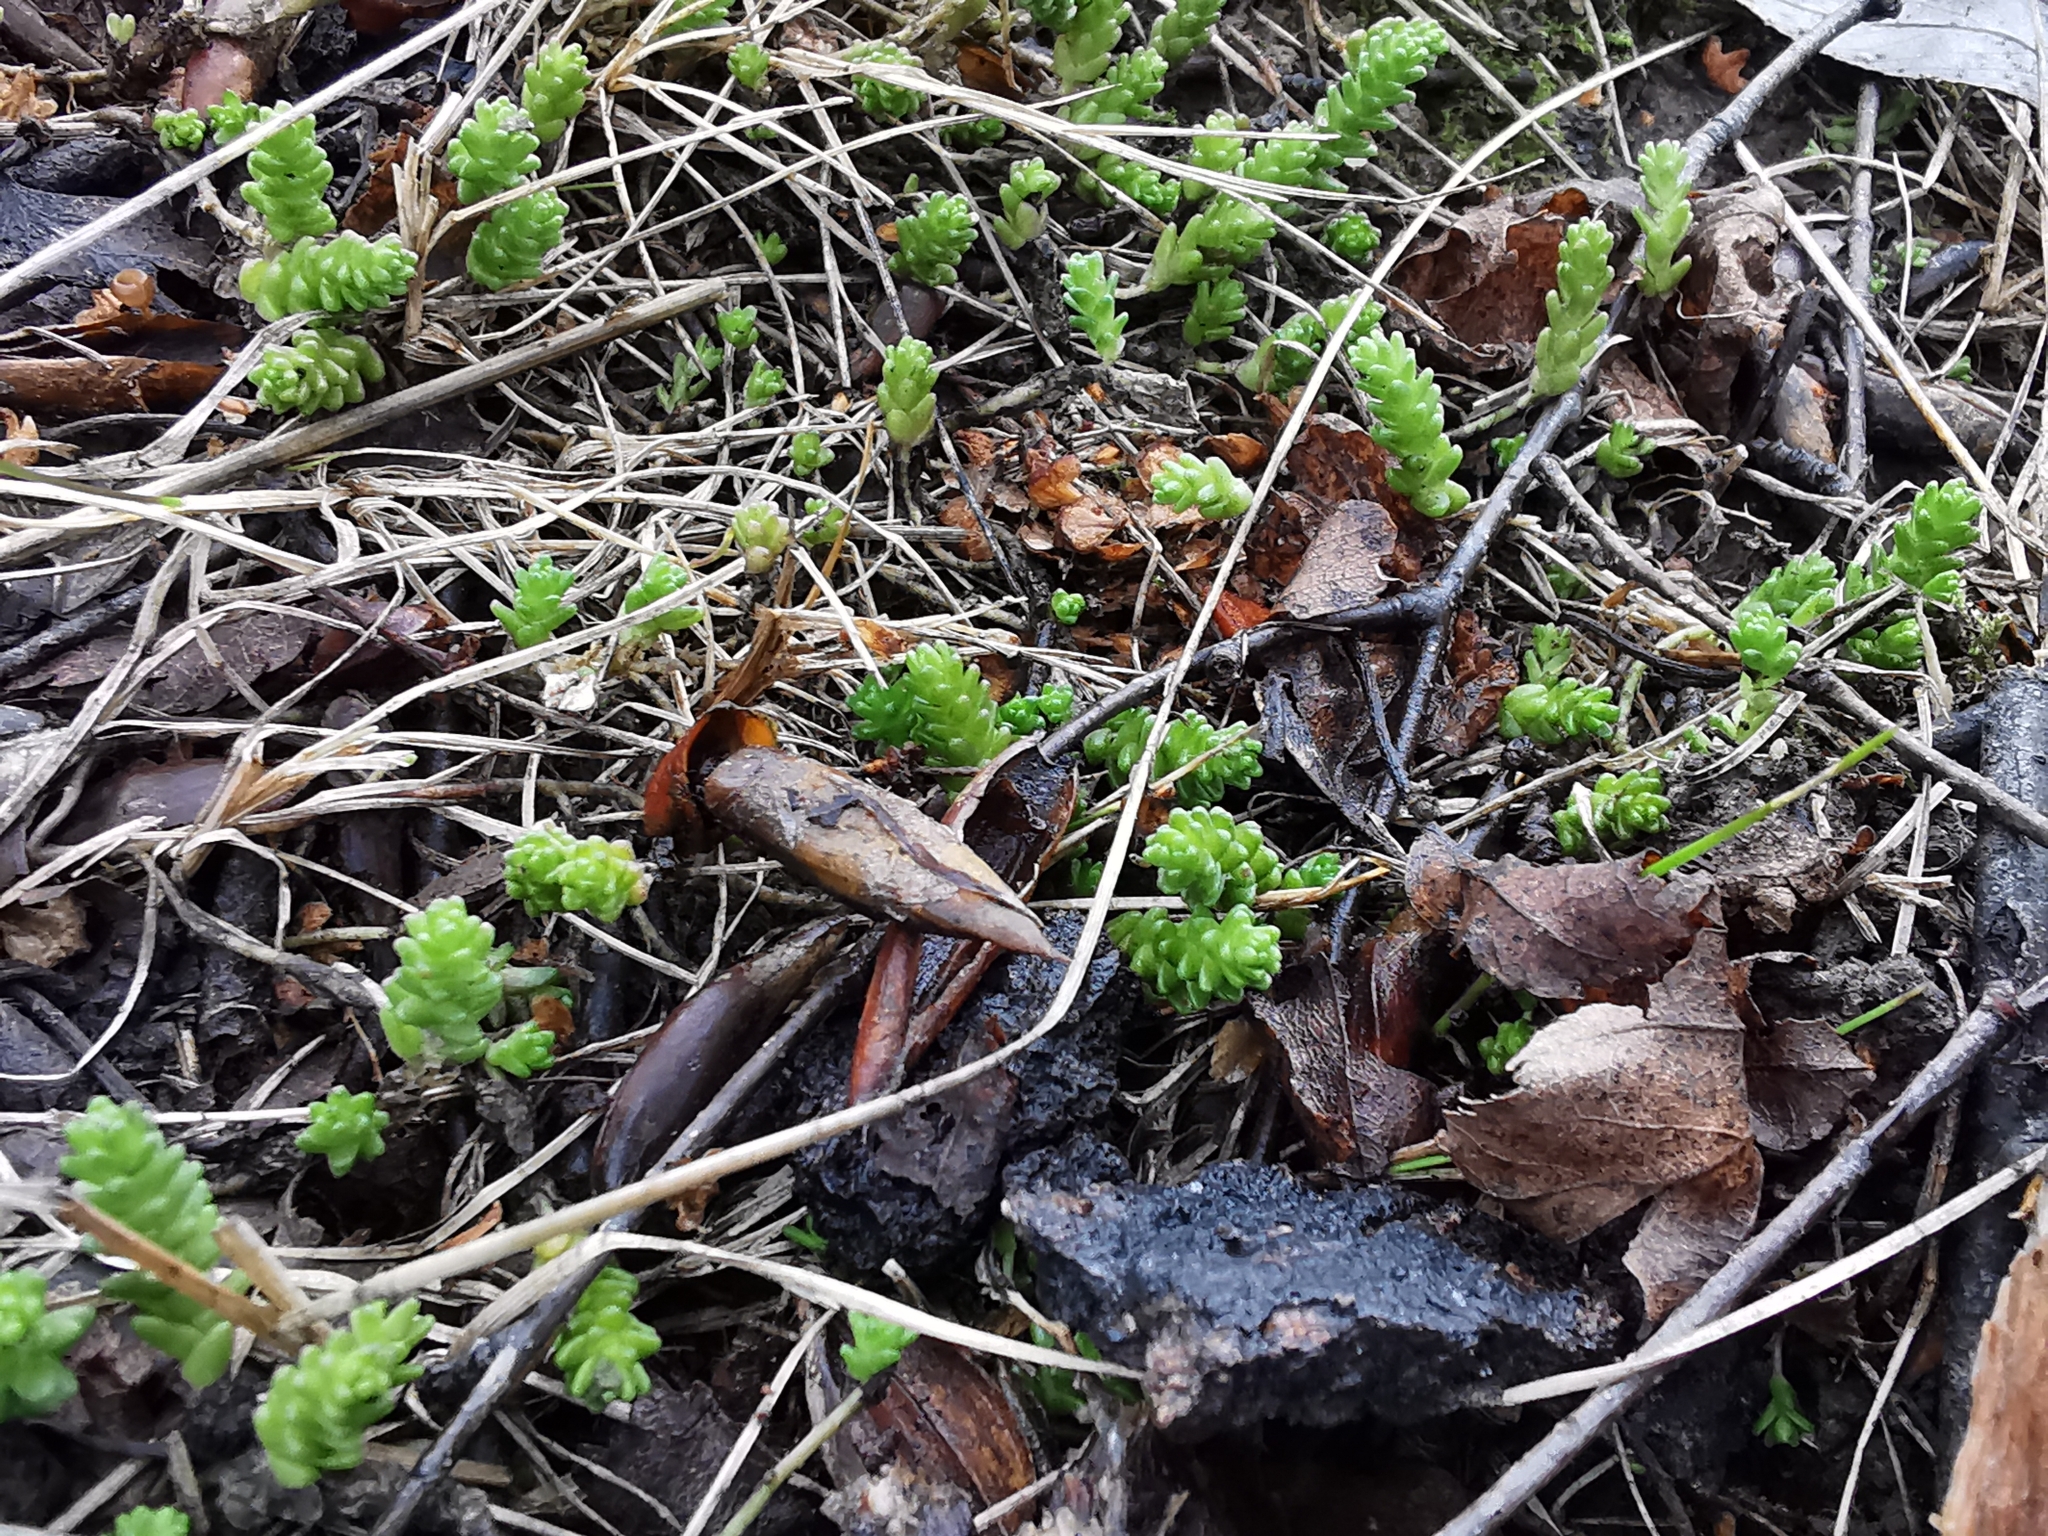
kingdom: Plantae
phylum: Tracheophyta
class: Magnoliopsida
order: Saxifragales
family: Crassulaceae
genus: Sedum
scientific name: Sedum acre
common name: Biting stonecrop
